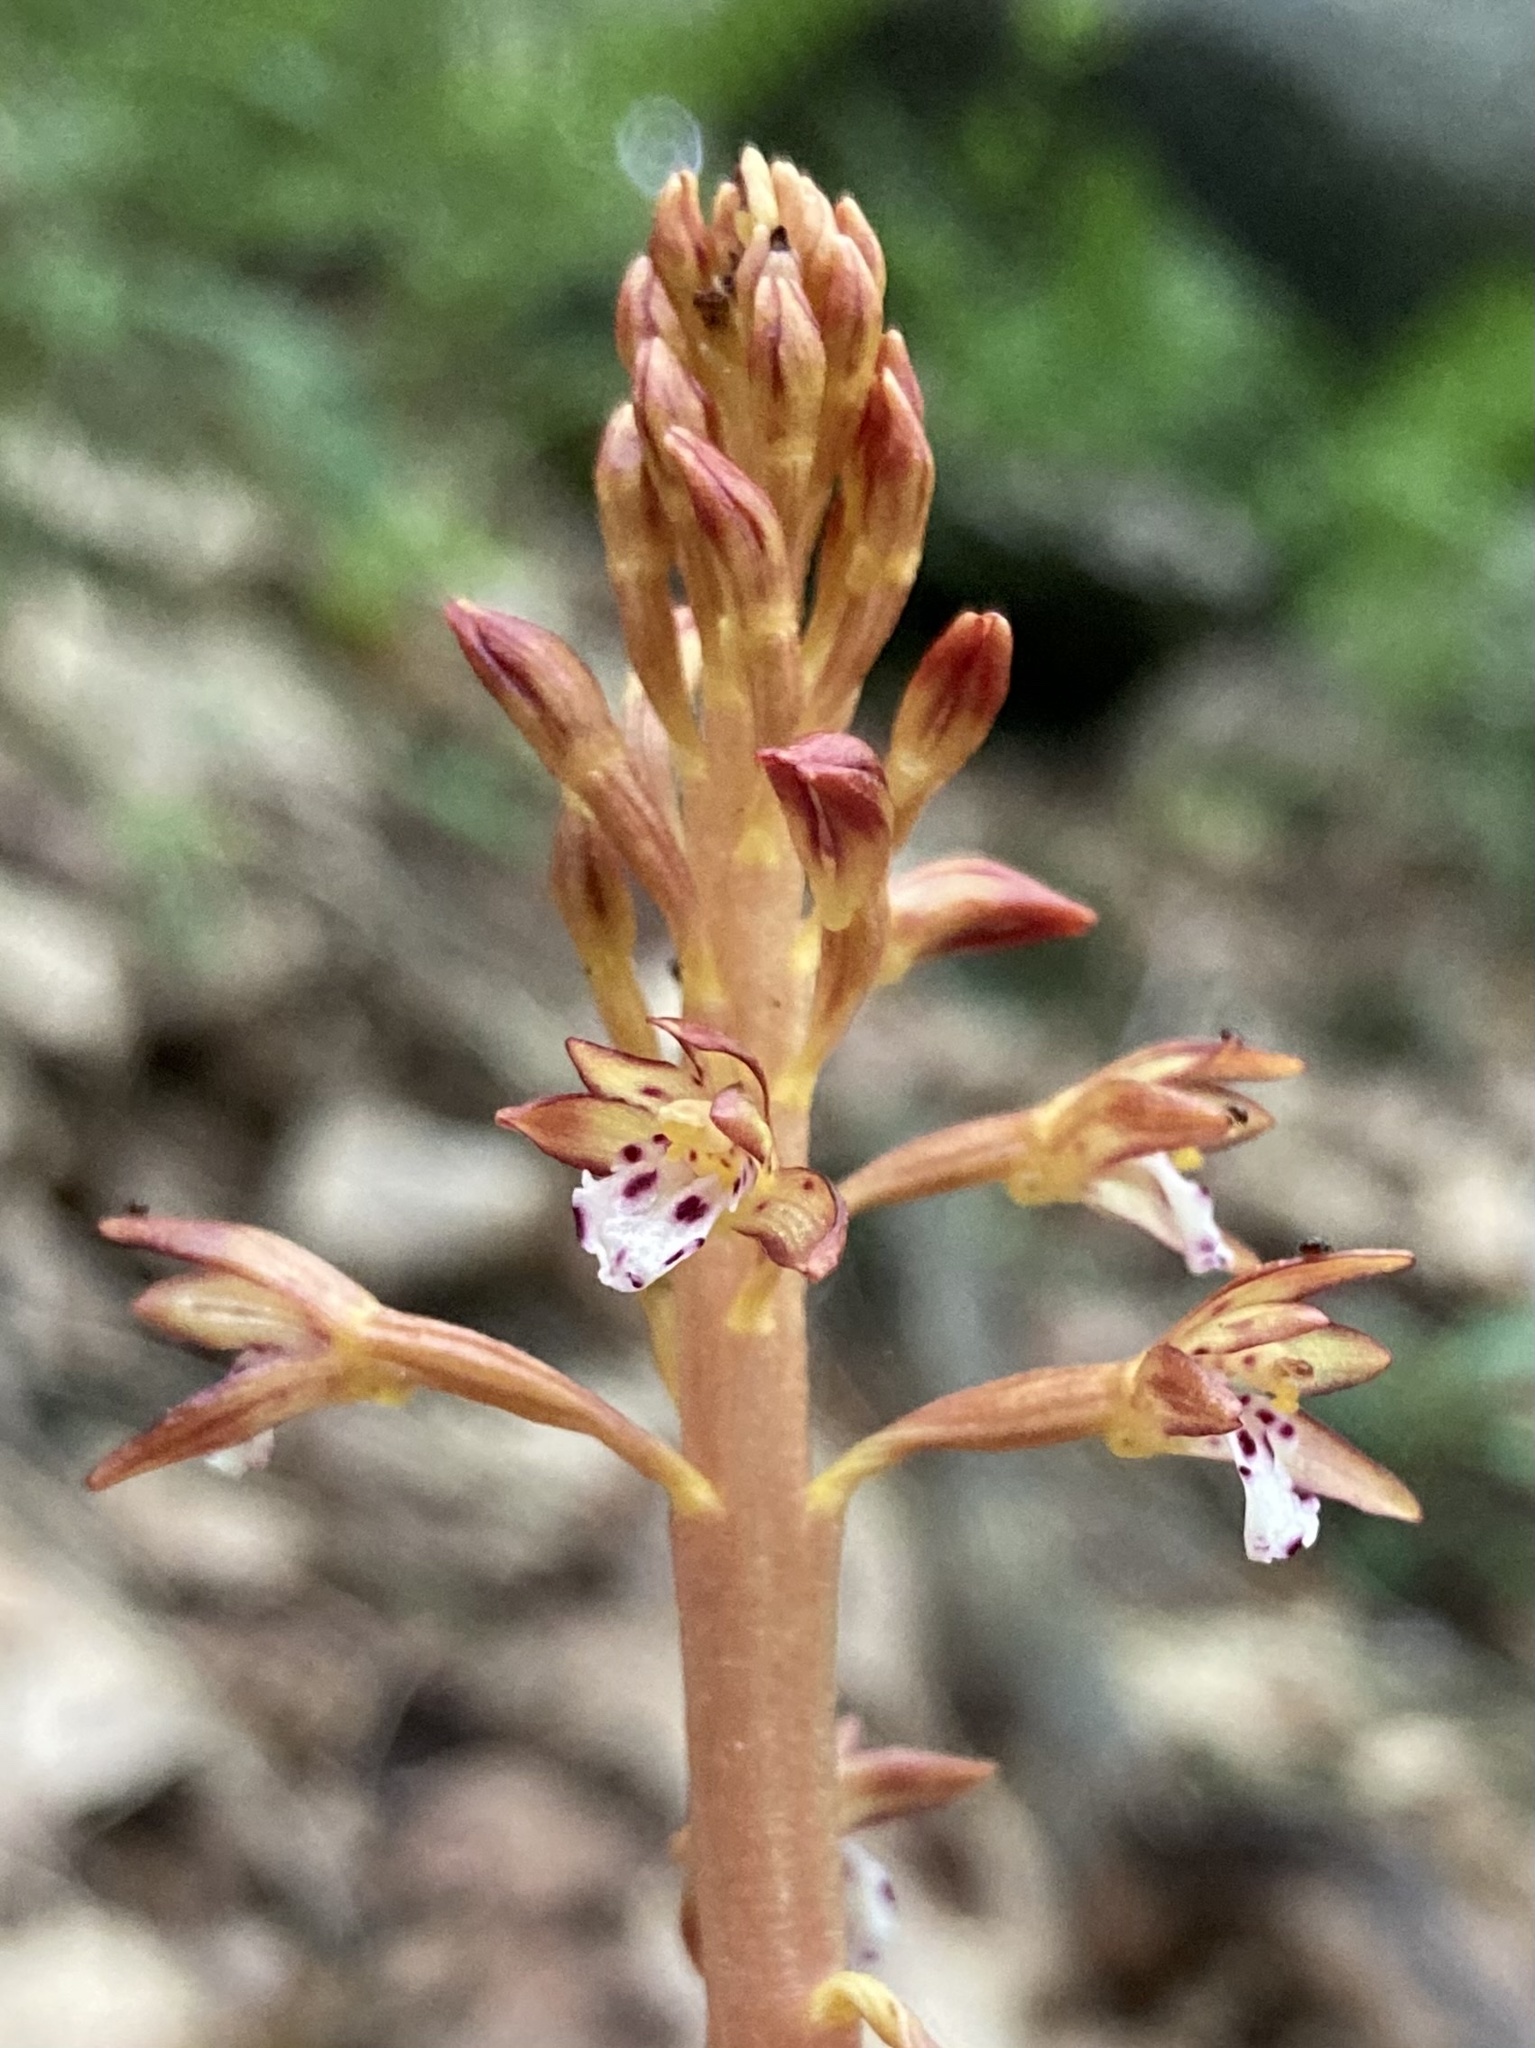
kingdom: Plantae
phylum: Tracheophyta
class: Liliopsida
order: Asparagales
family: Orchidaceae
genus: Corallorhiza
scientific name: Corallorhiza maculata
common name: Spotted coralroot
